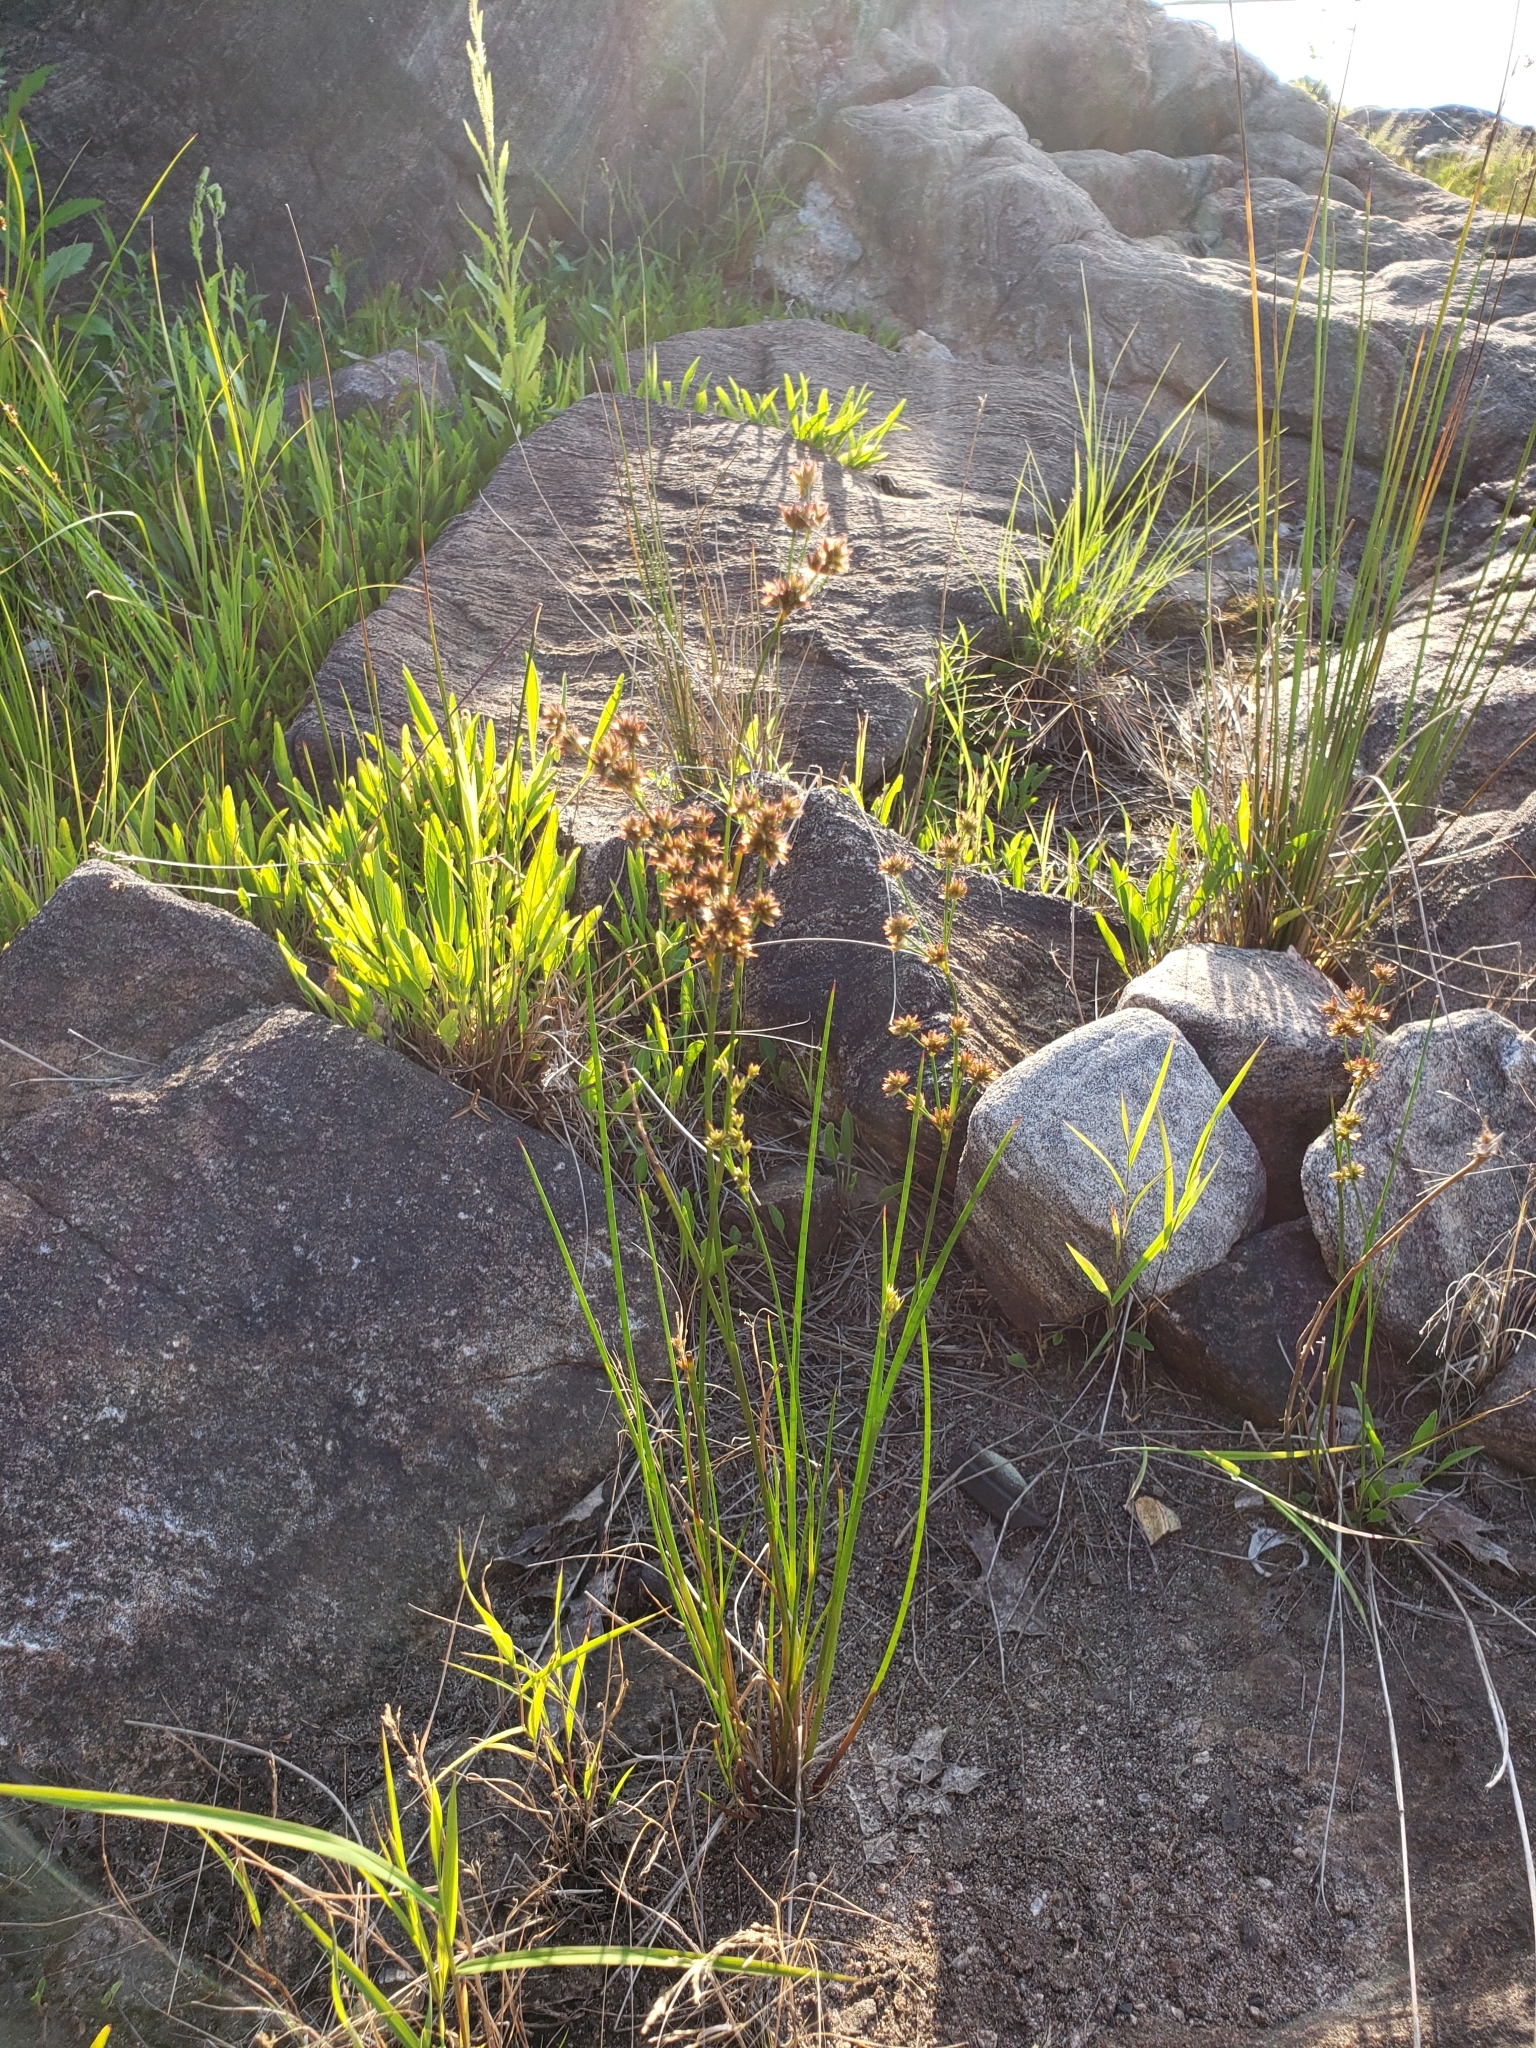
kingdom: Plantae
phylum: Tracheophyta
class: Liliopsida
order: Poales
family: Juncaceae
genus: Juncus
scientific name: Juncus canadensis
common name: Canada rush
